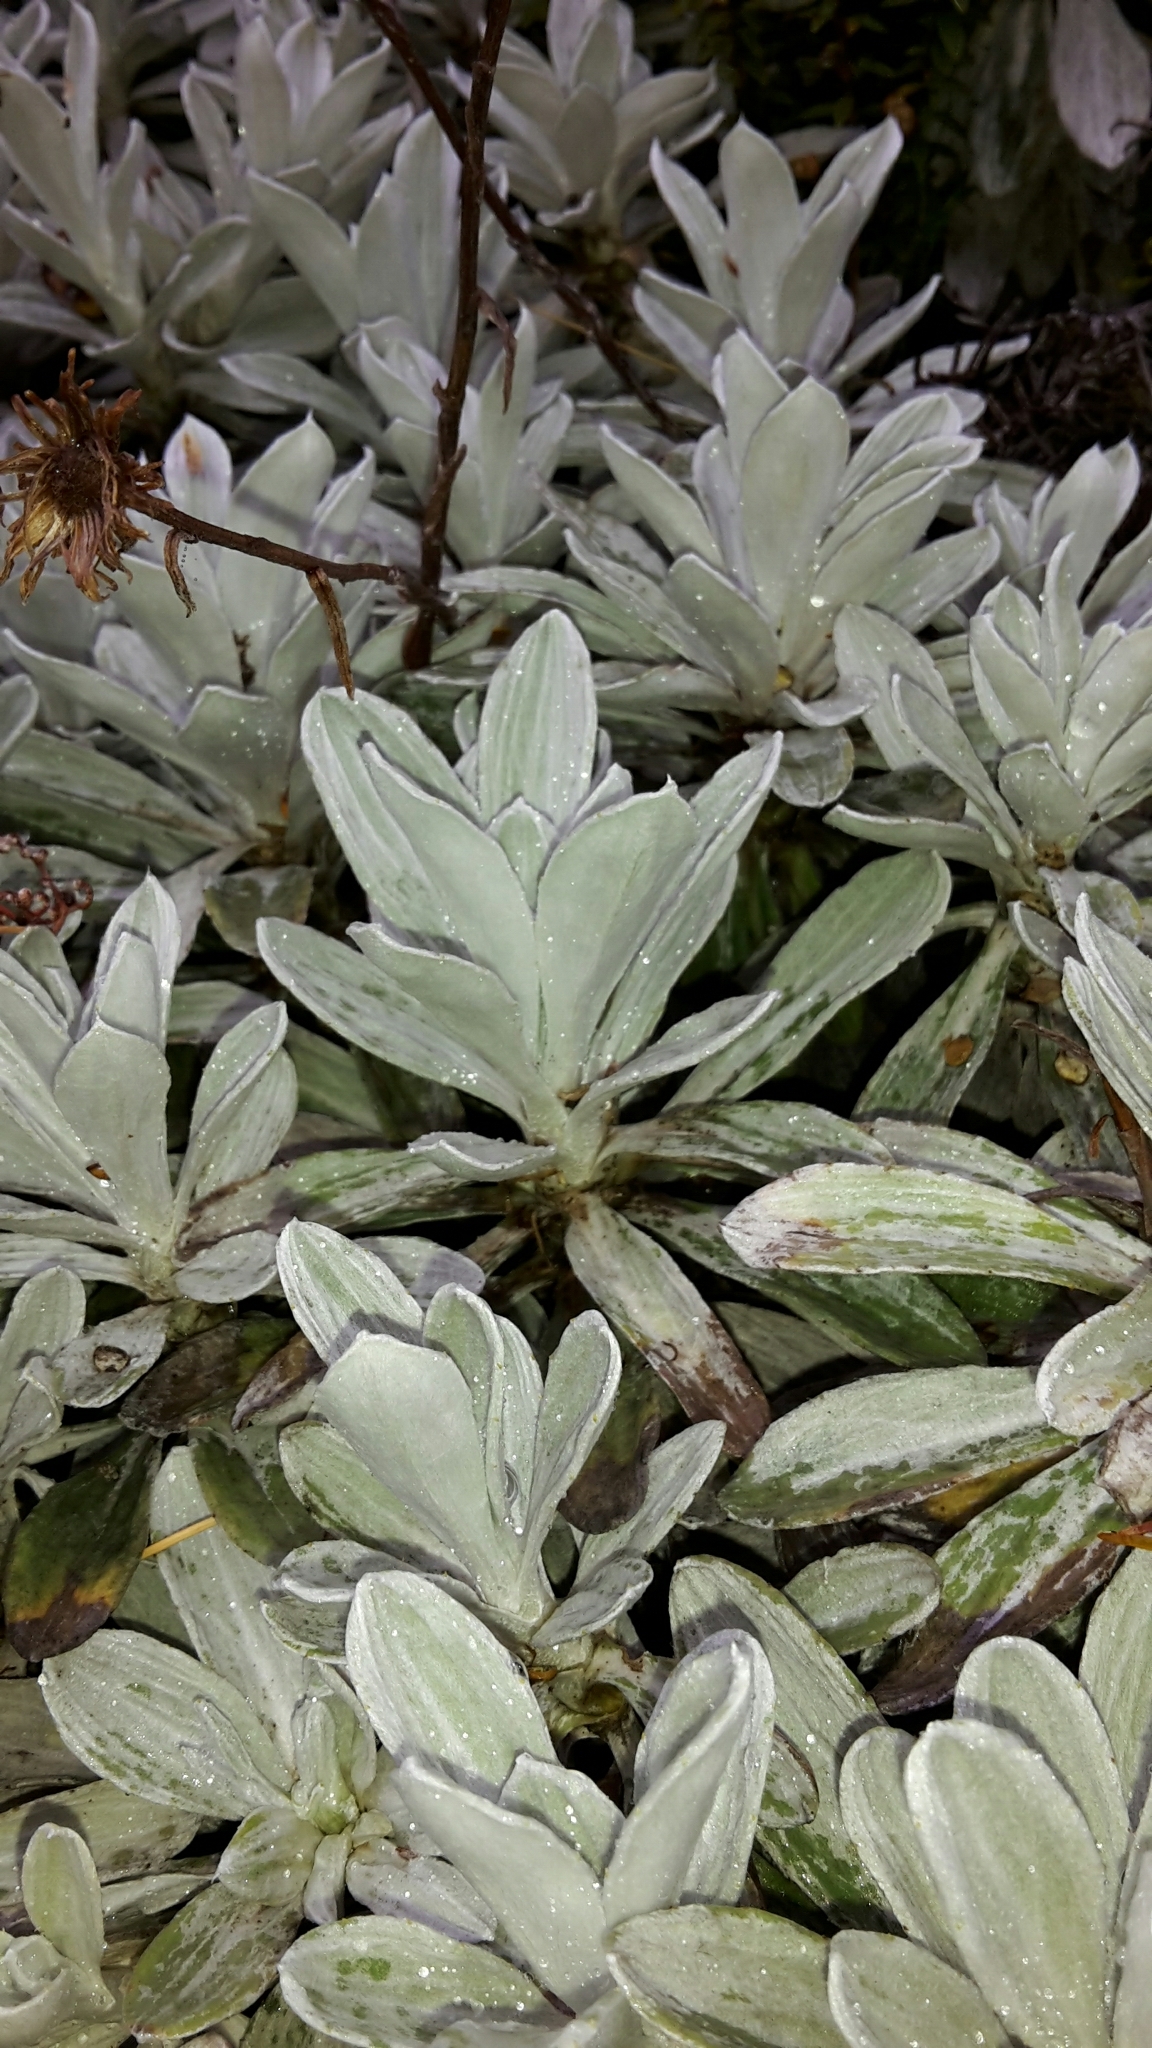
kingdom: Plantae
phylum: Tracheophyta
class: Magnoliopsida
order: Asterales
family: Asteraceae
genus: Celmisia
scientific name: Celmisia incana
